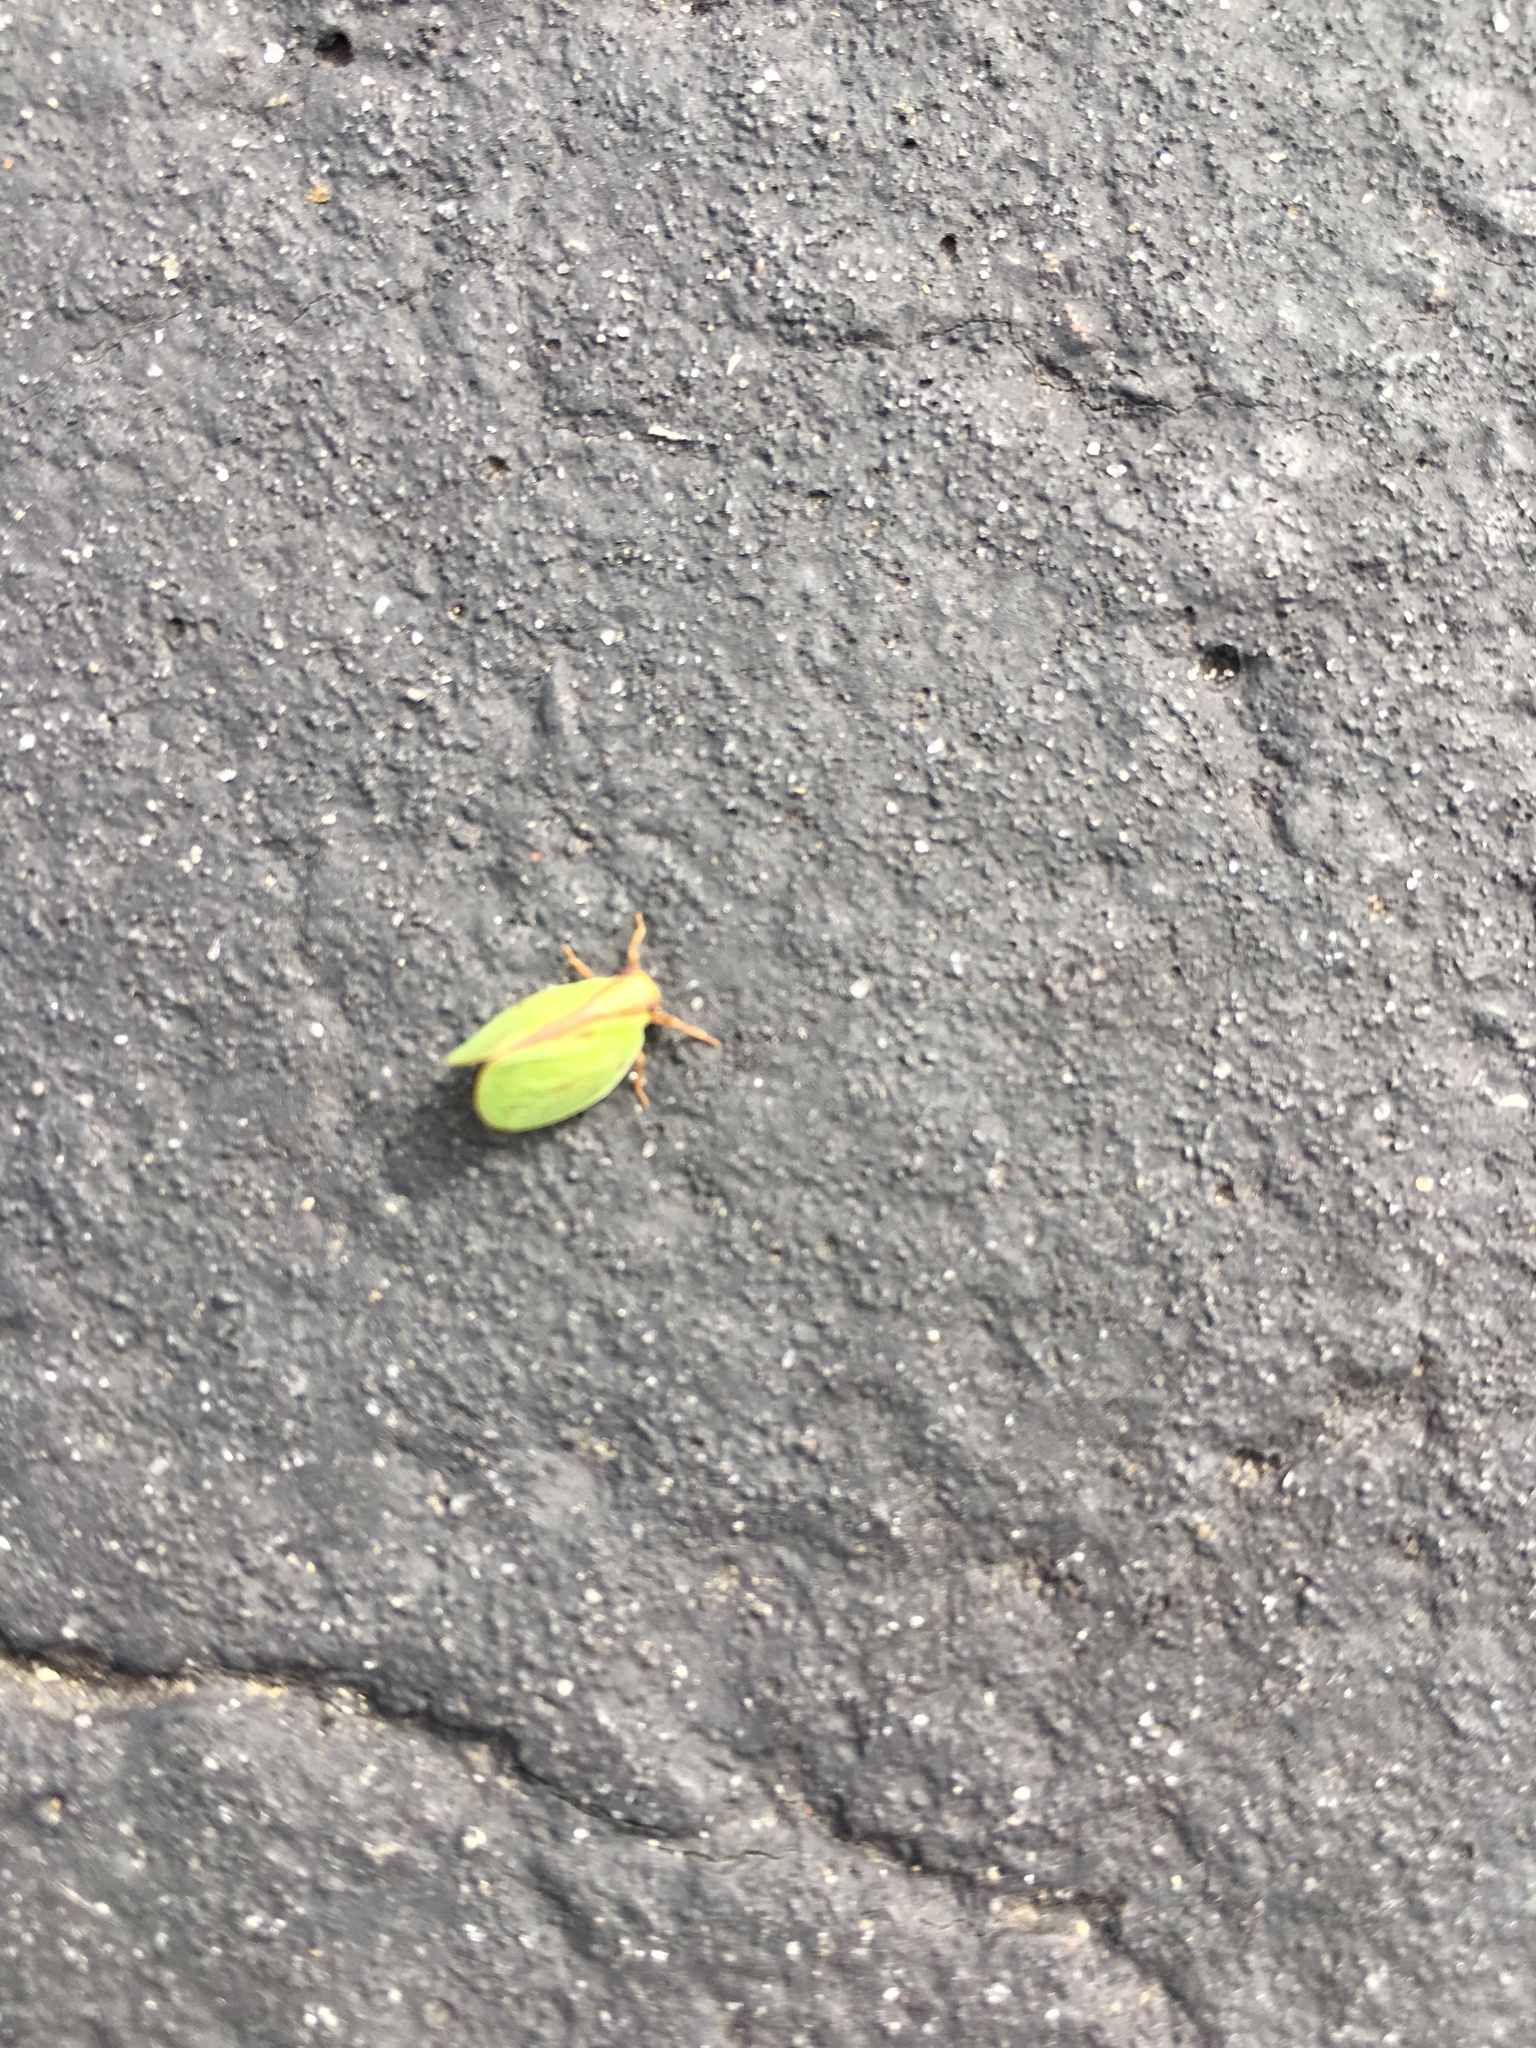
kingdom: Animalia
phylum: Arthropoda
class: Insecta
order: Hemiptera
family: Acanaloniidae
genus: Acanalonia
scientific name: Acanalonia bivittata
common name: Two-striped planthopper
